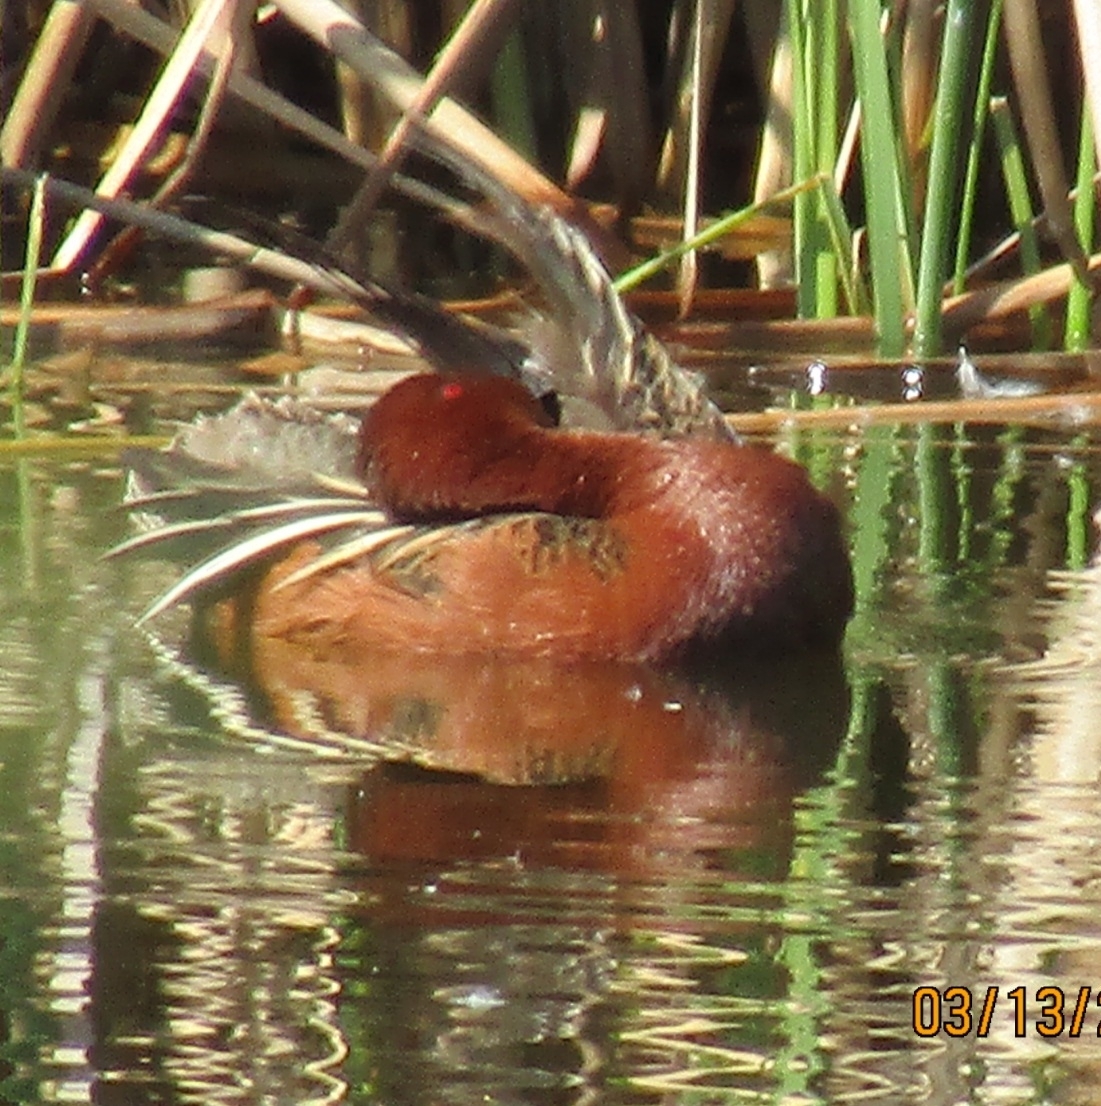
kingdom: Animalia
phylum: Chordata
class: Aves
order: Anseriformes
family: Anatidae
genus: Spatula
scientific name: Spatula cyanoptera
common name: Cinnamon teal
